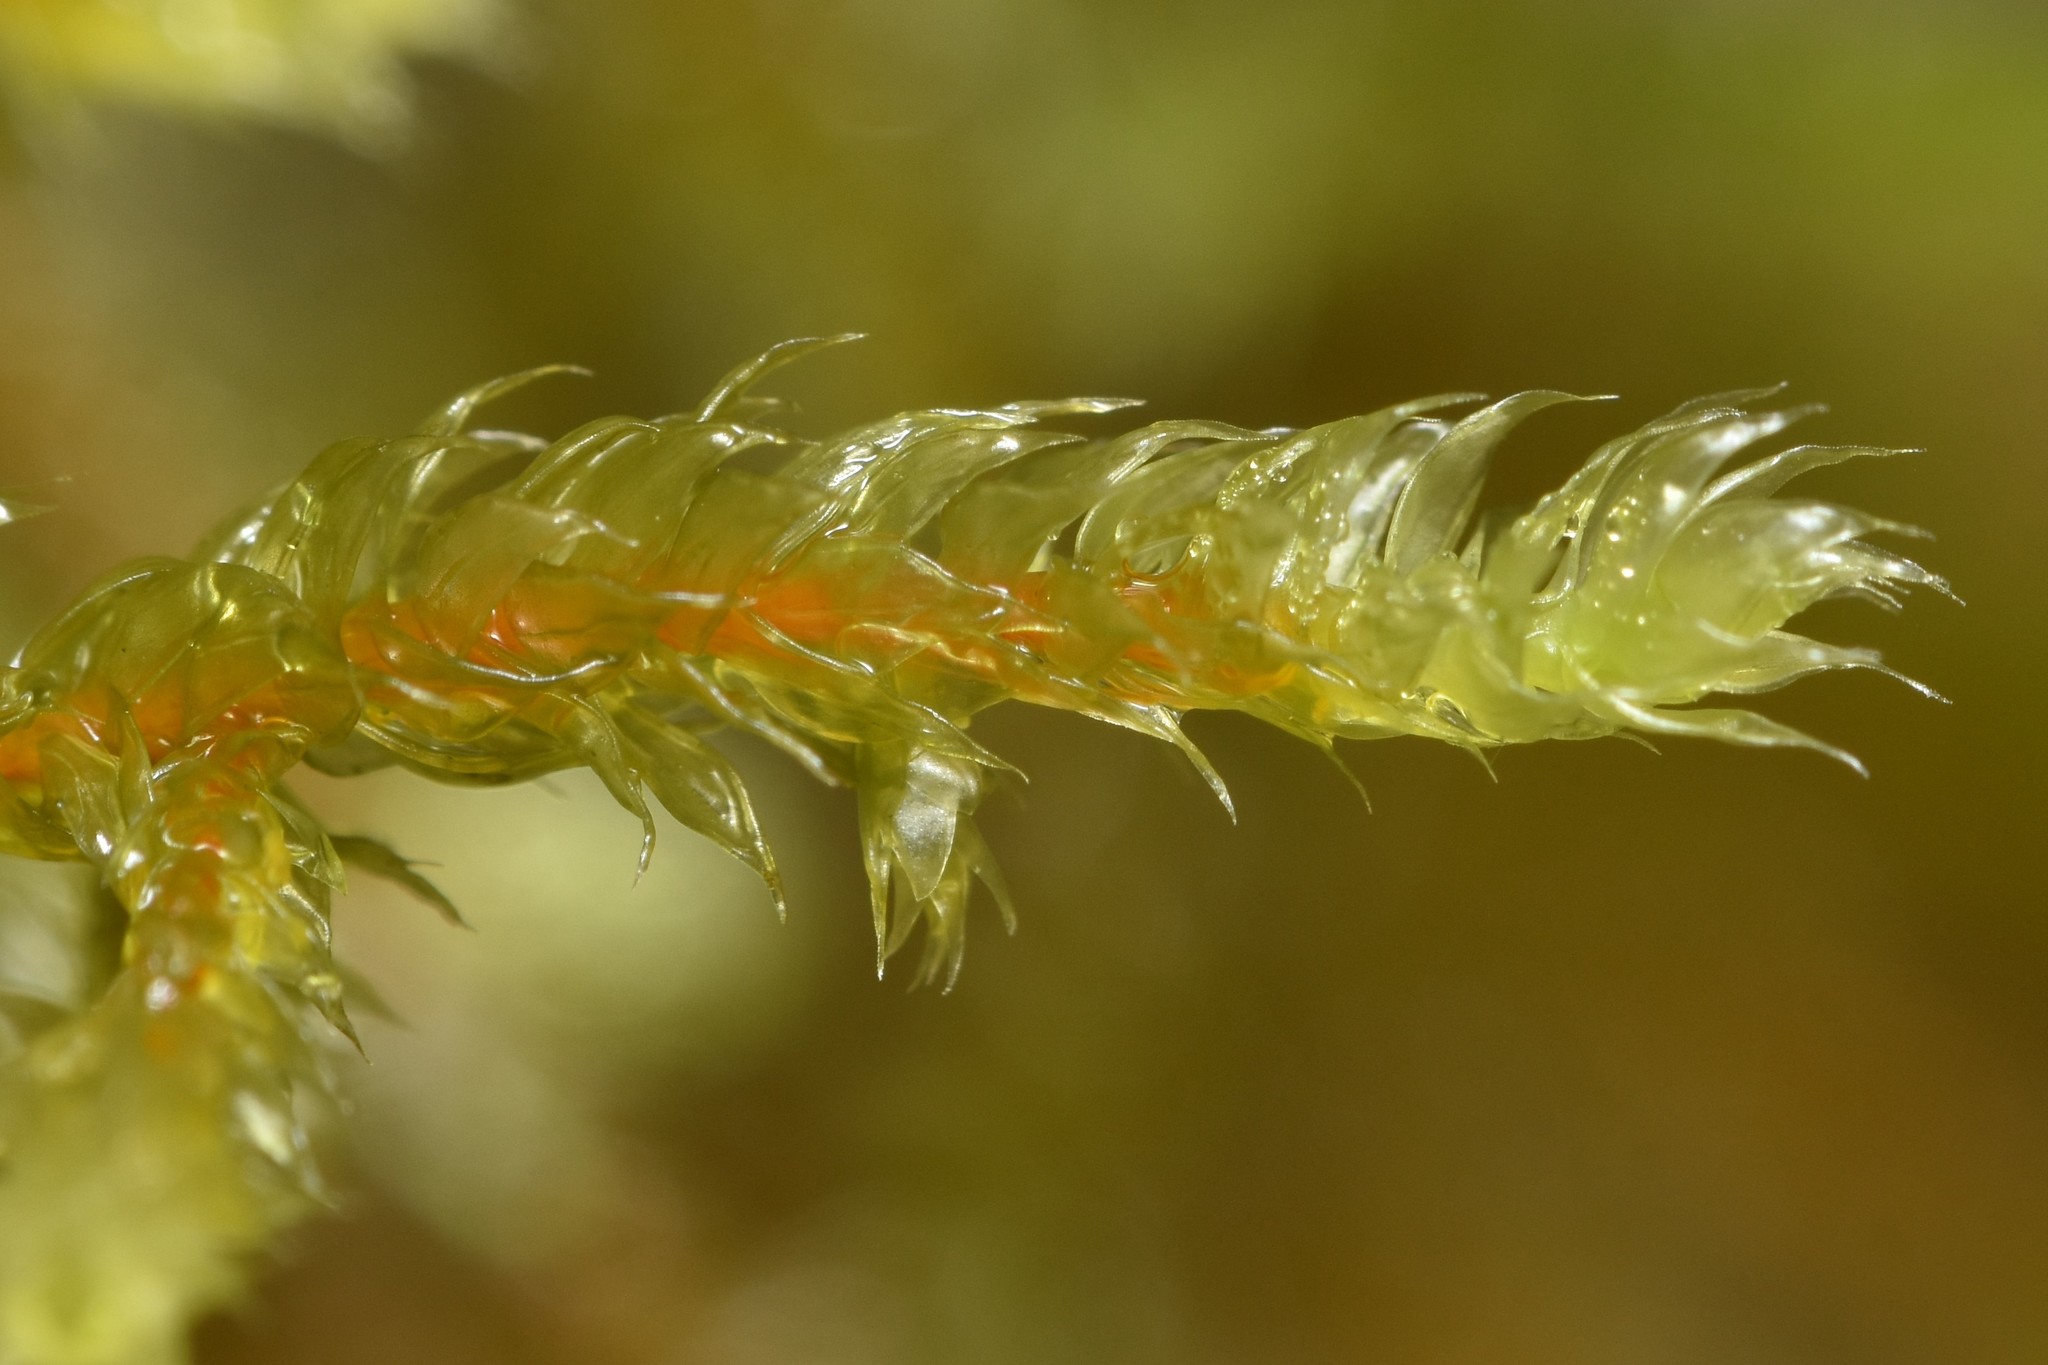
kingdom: Plantae
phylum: Bryophyta
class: Bryopsida
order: Hypnales
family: Antitrichiaceae
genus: Antitrichia
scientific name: Antitrichia curtipendula
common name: Pendulous wing-moss
